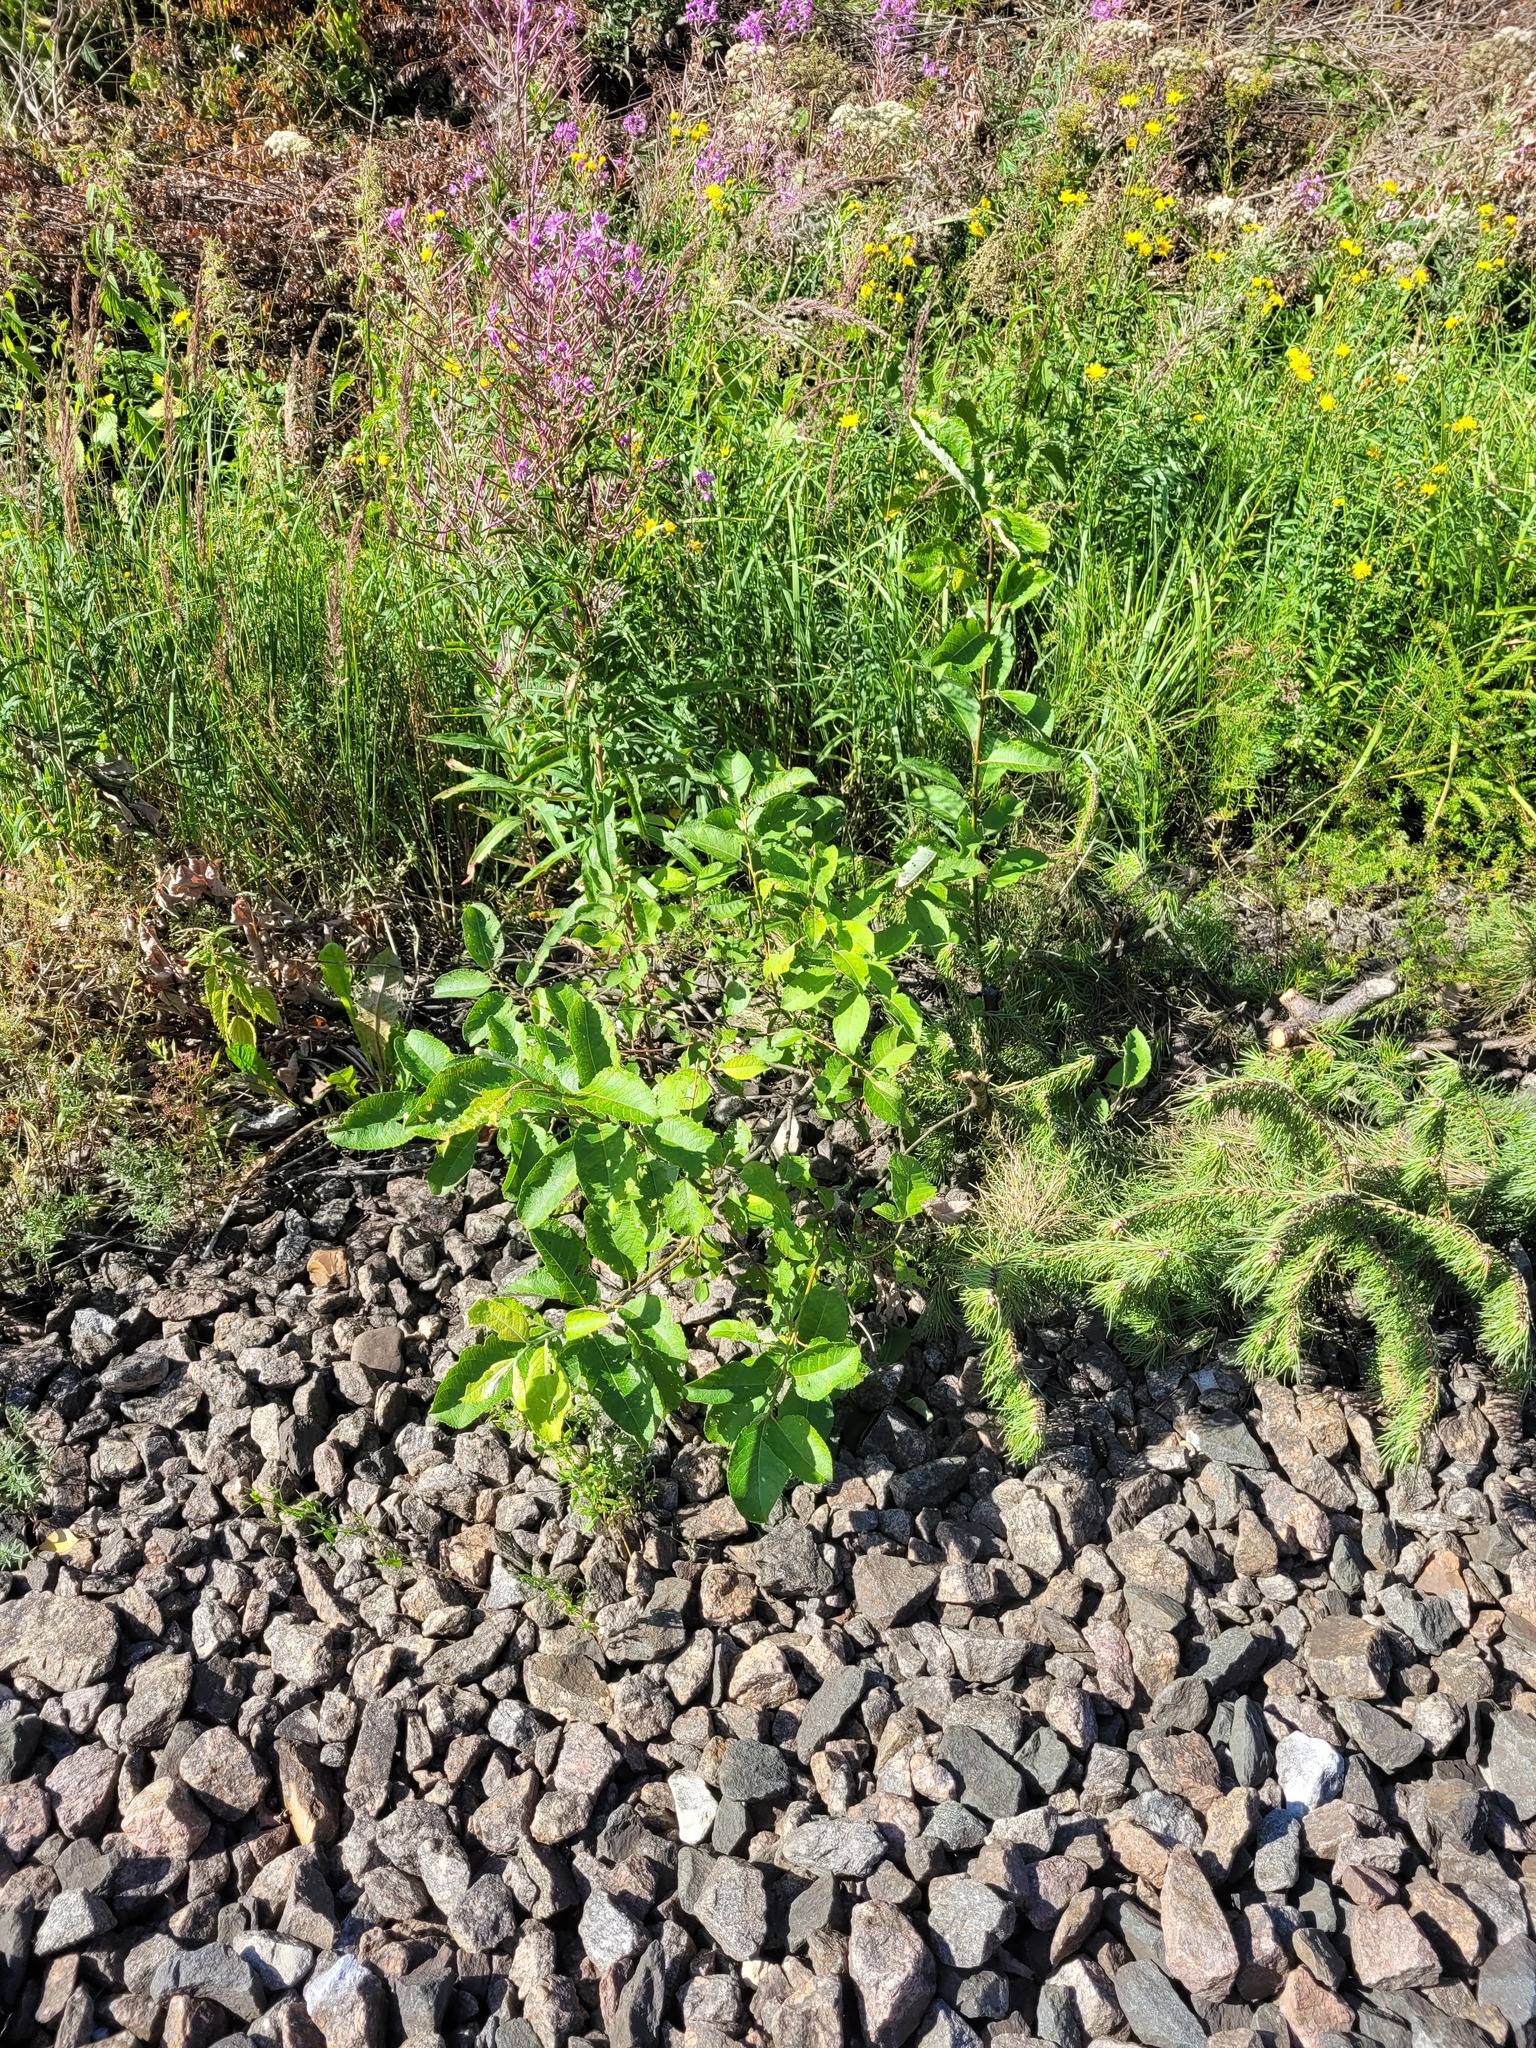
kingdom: Plantae
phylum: Tracheophyta
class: Magnoliopsida
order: Malpighiales
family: Salicaceae
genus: Salix
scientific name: Salix caprea
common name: Goat willow
